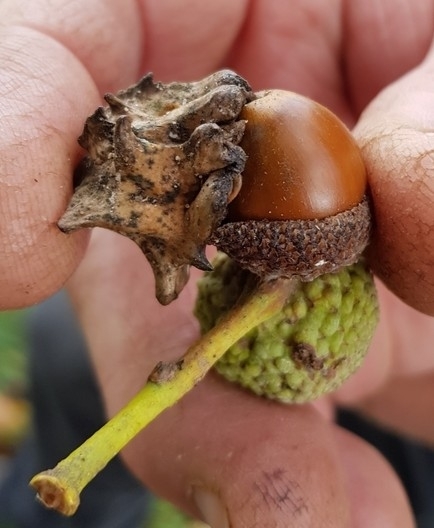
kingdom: Animalia
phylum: Arthropoda
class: Insecta
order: Hymenoptera
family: Cynipidae
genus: Andricus
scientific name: Andricus quercuscalicis
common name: Knopper gall
